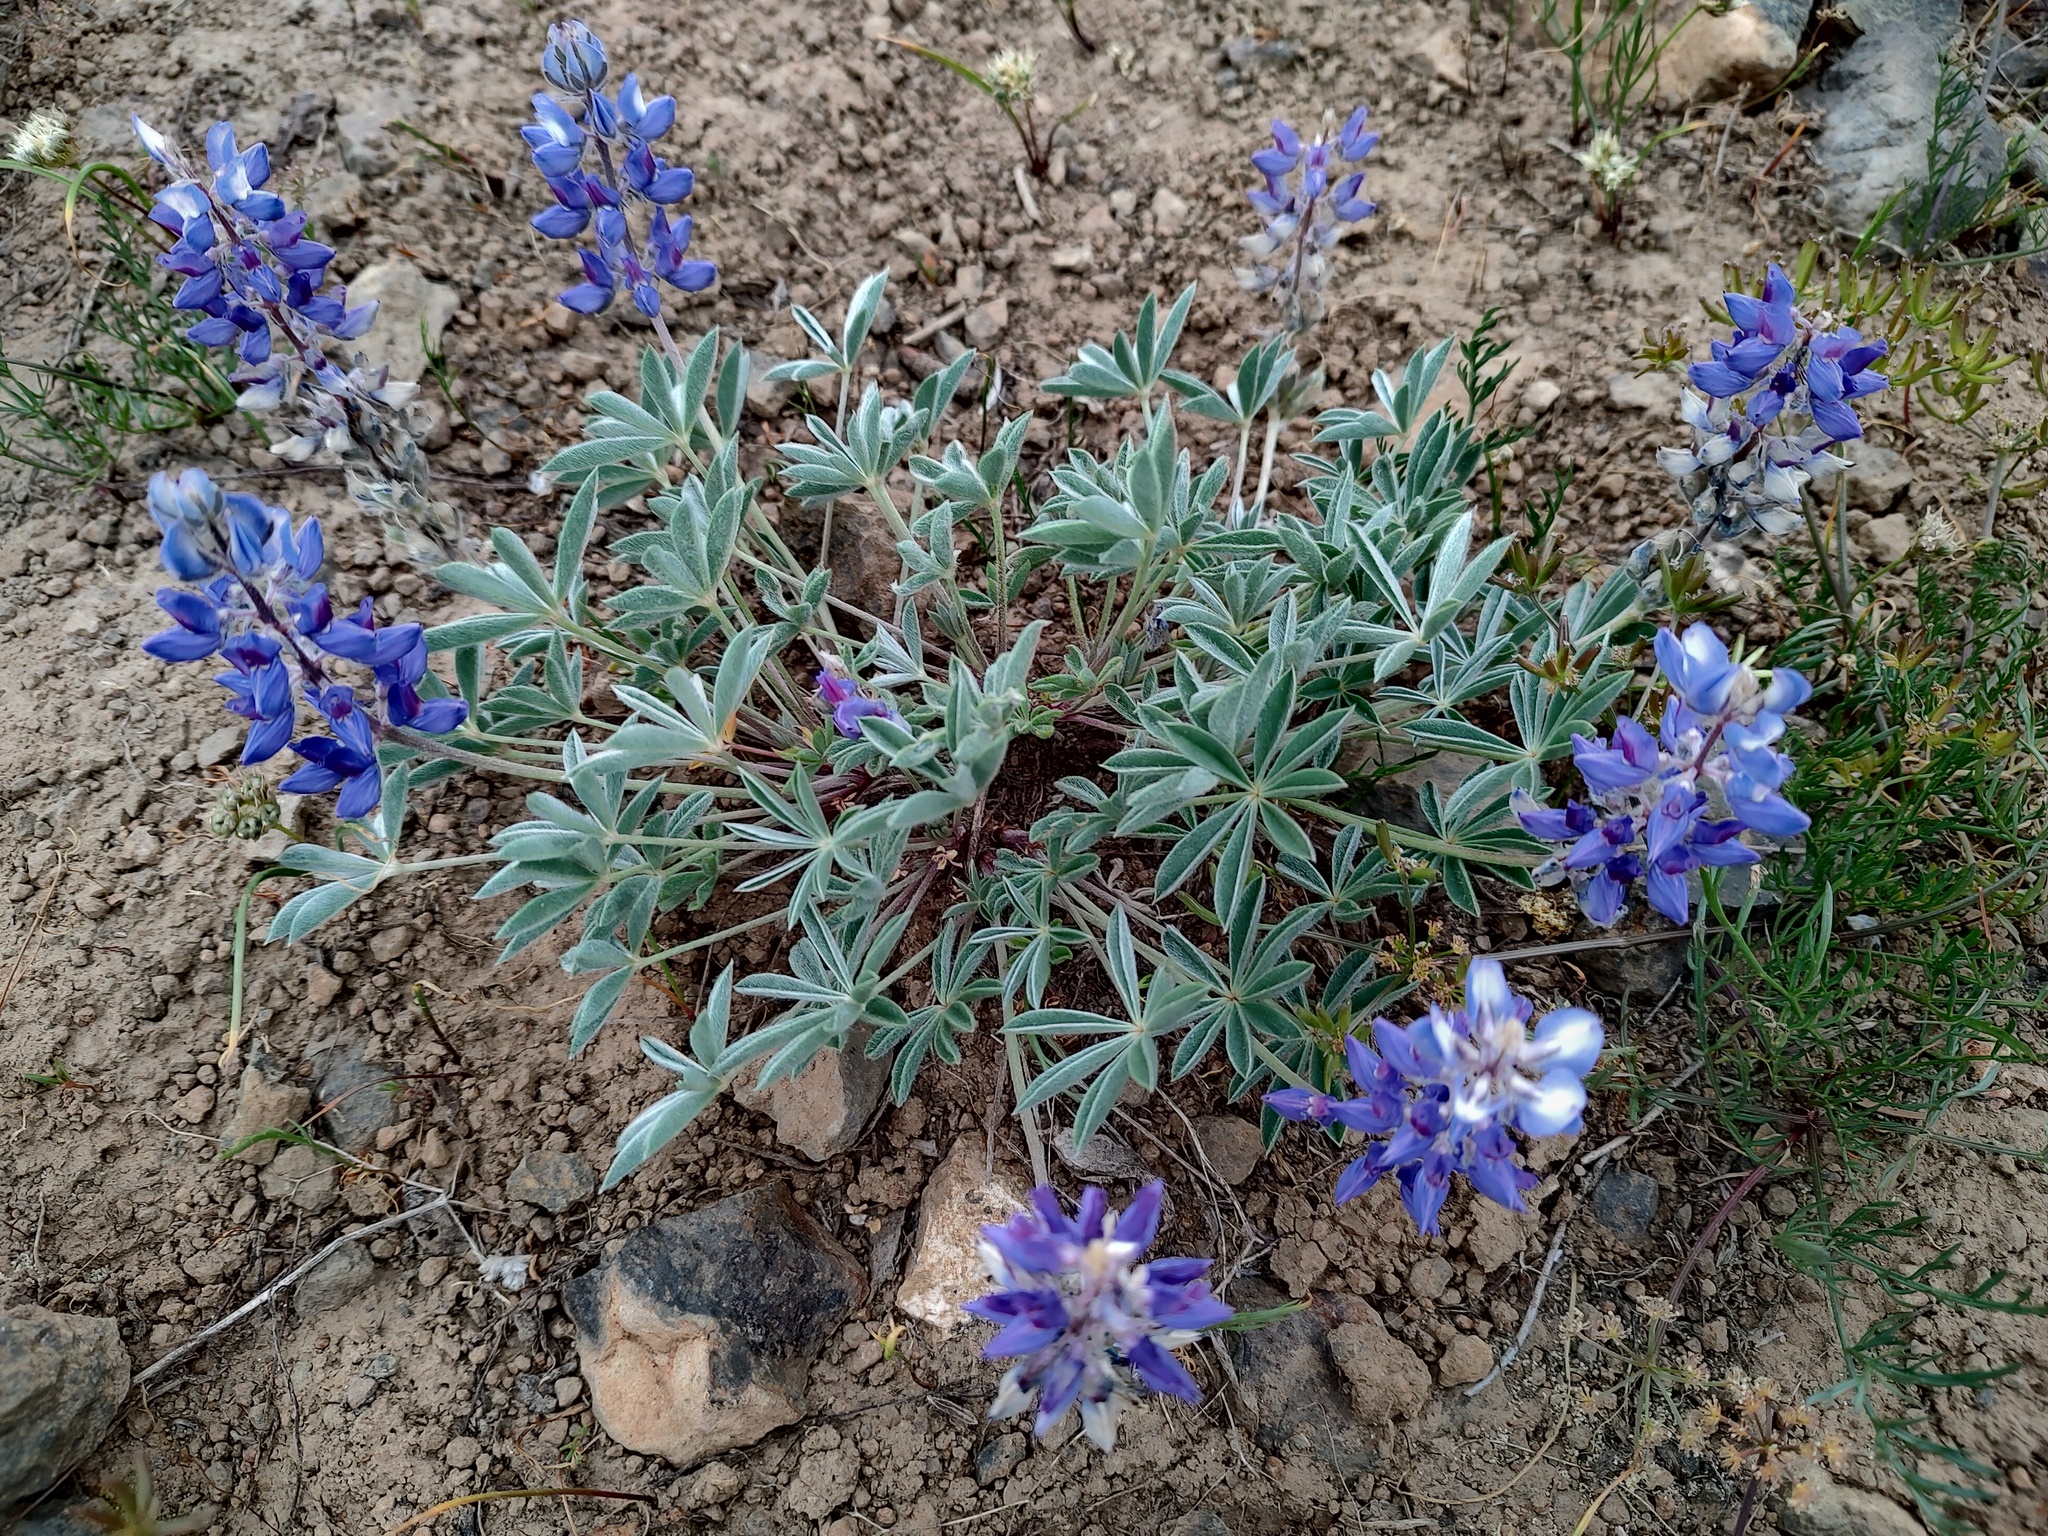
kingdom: Plantae
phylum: Tracheophyta
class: Magnoliopsida
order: Fabales
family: Fabaceae
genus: Lupinus
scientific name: Lupinus aridus
